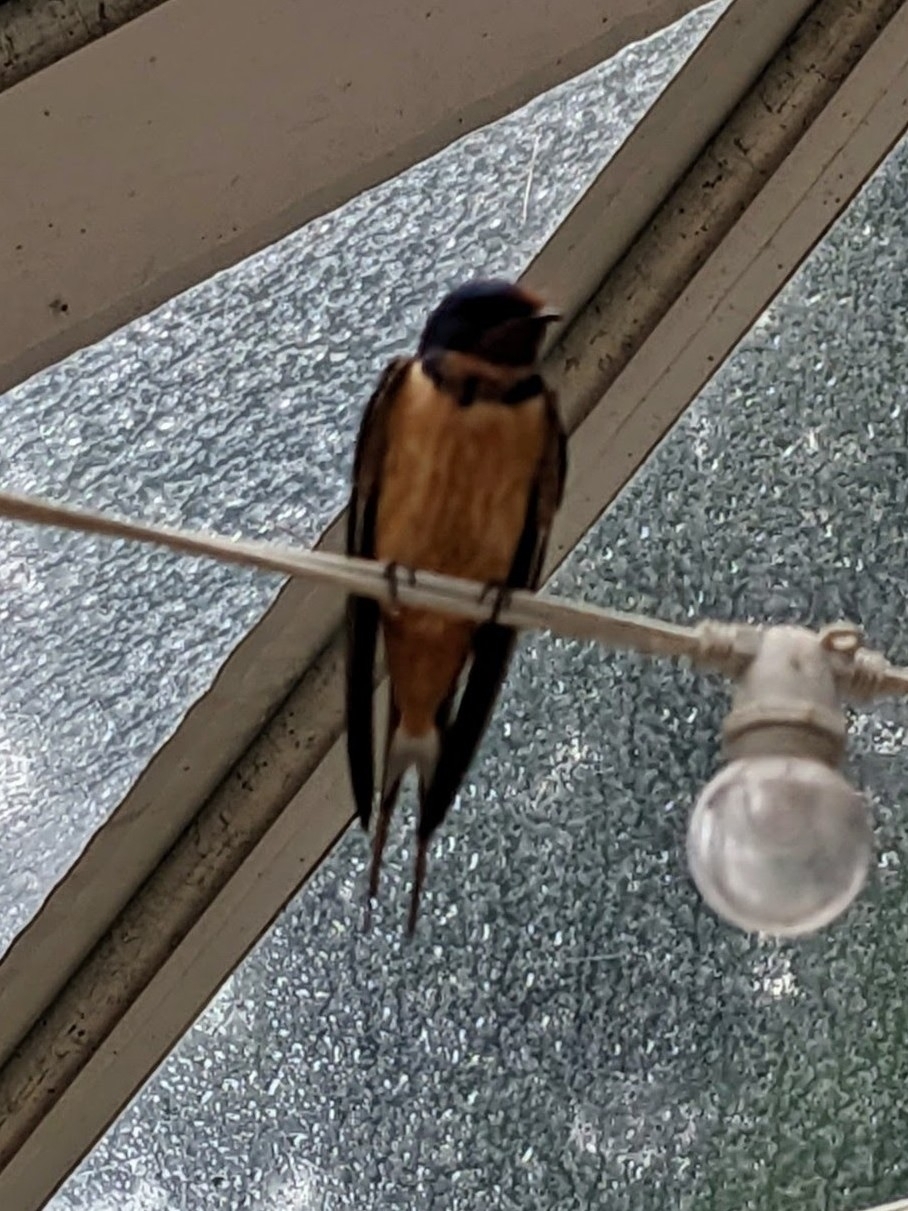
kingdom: Animalia
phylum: Chordata
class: Aves
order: Passeriformes
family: Hirundinidae
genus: Hirundo
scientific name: Hirundo rustica
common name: Barn swallow
